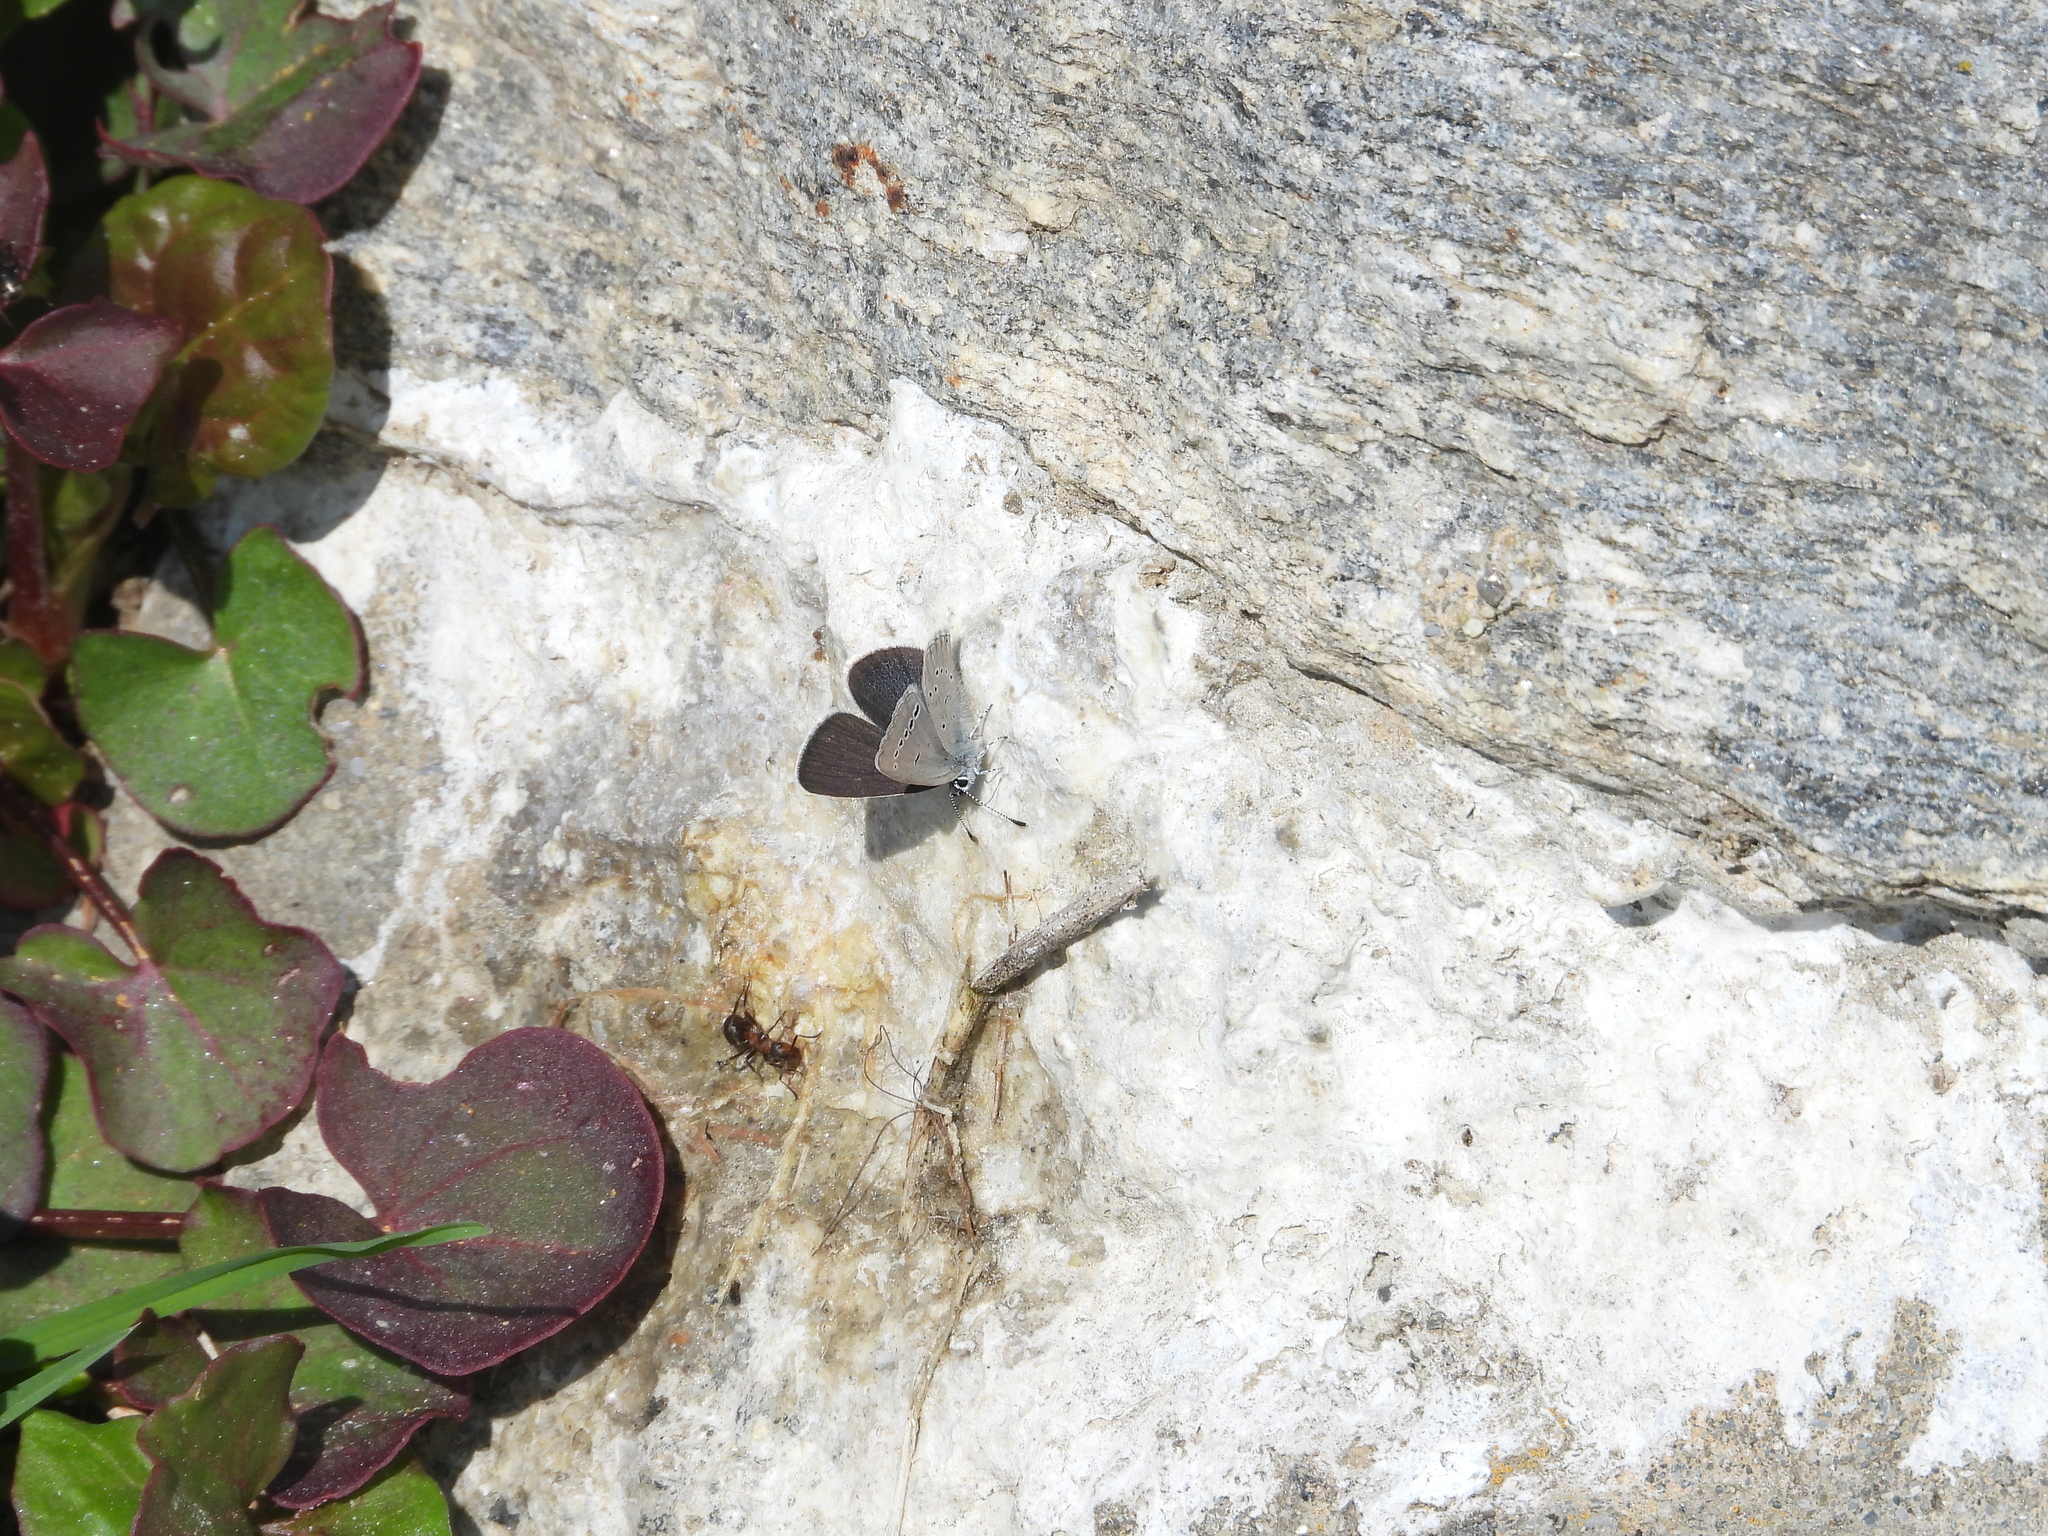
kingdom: Animalia
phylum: Arthropoda
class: Insecta
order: Lepidoptera
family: Lycaenidae
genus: Glaucopsyche
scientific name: Glaucopsyche alexis
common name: Green-underside blue
